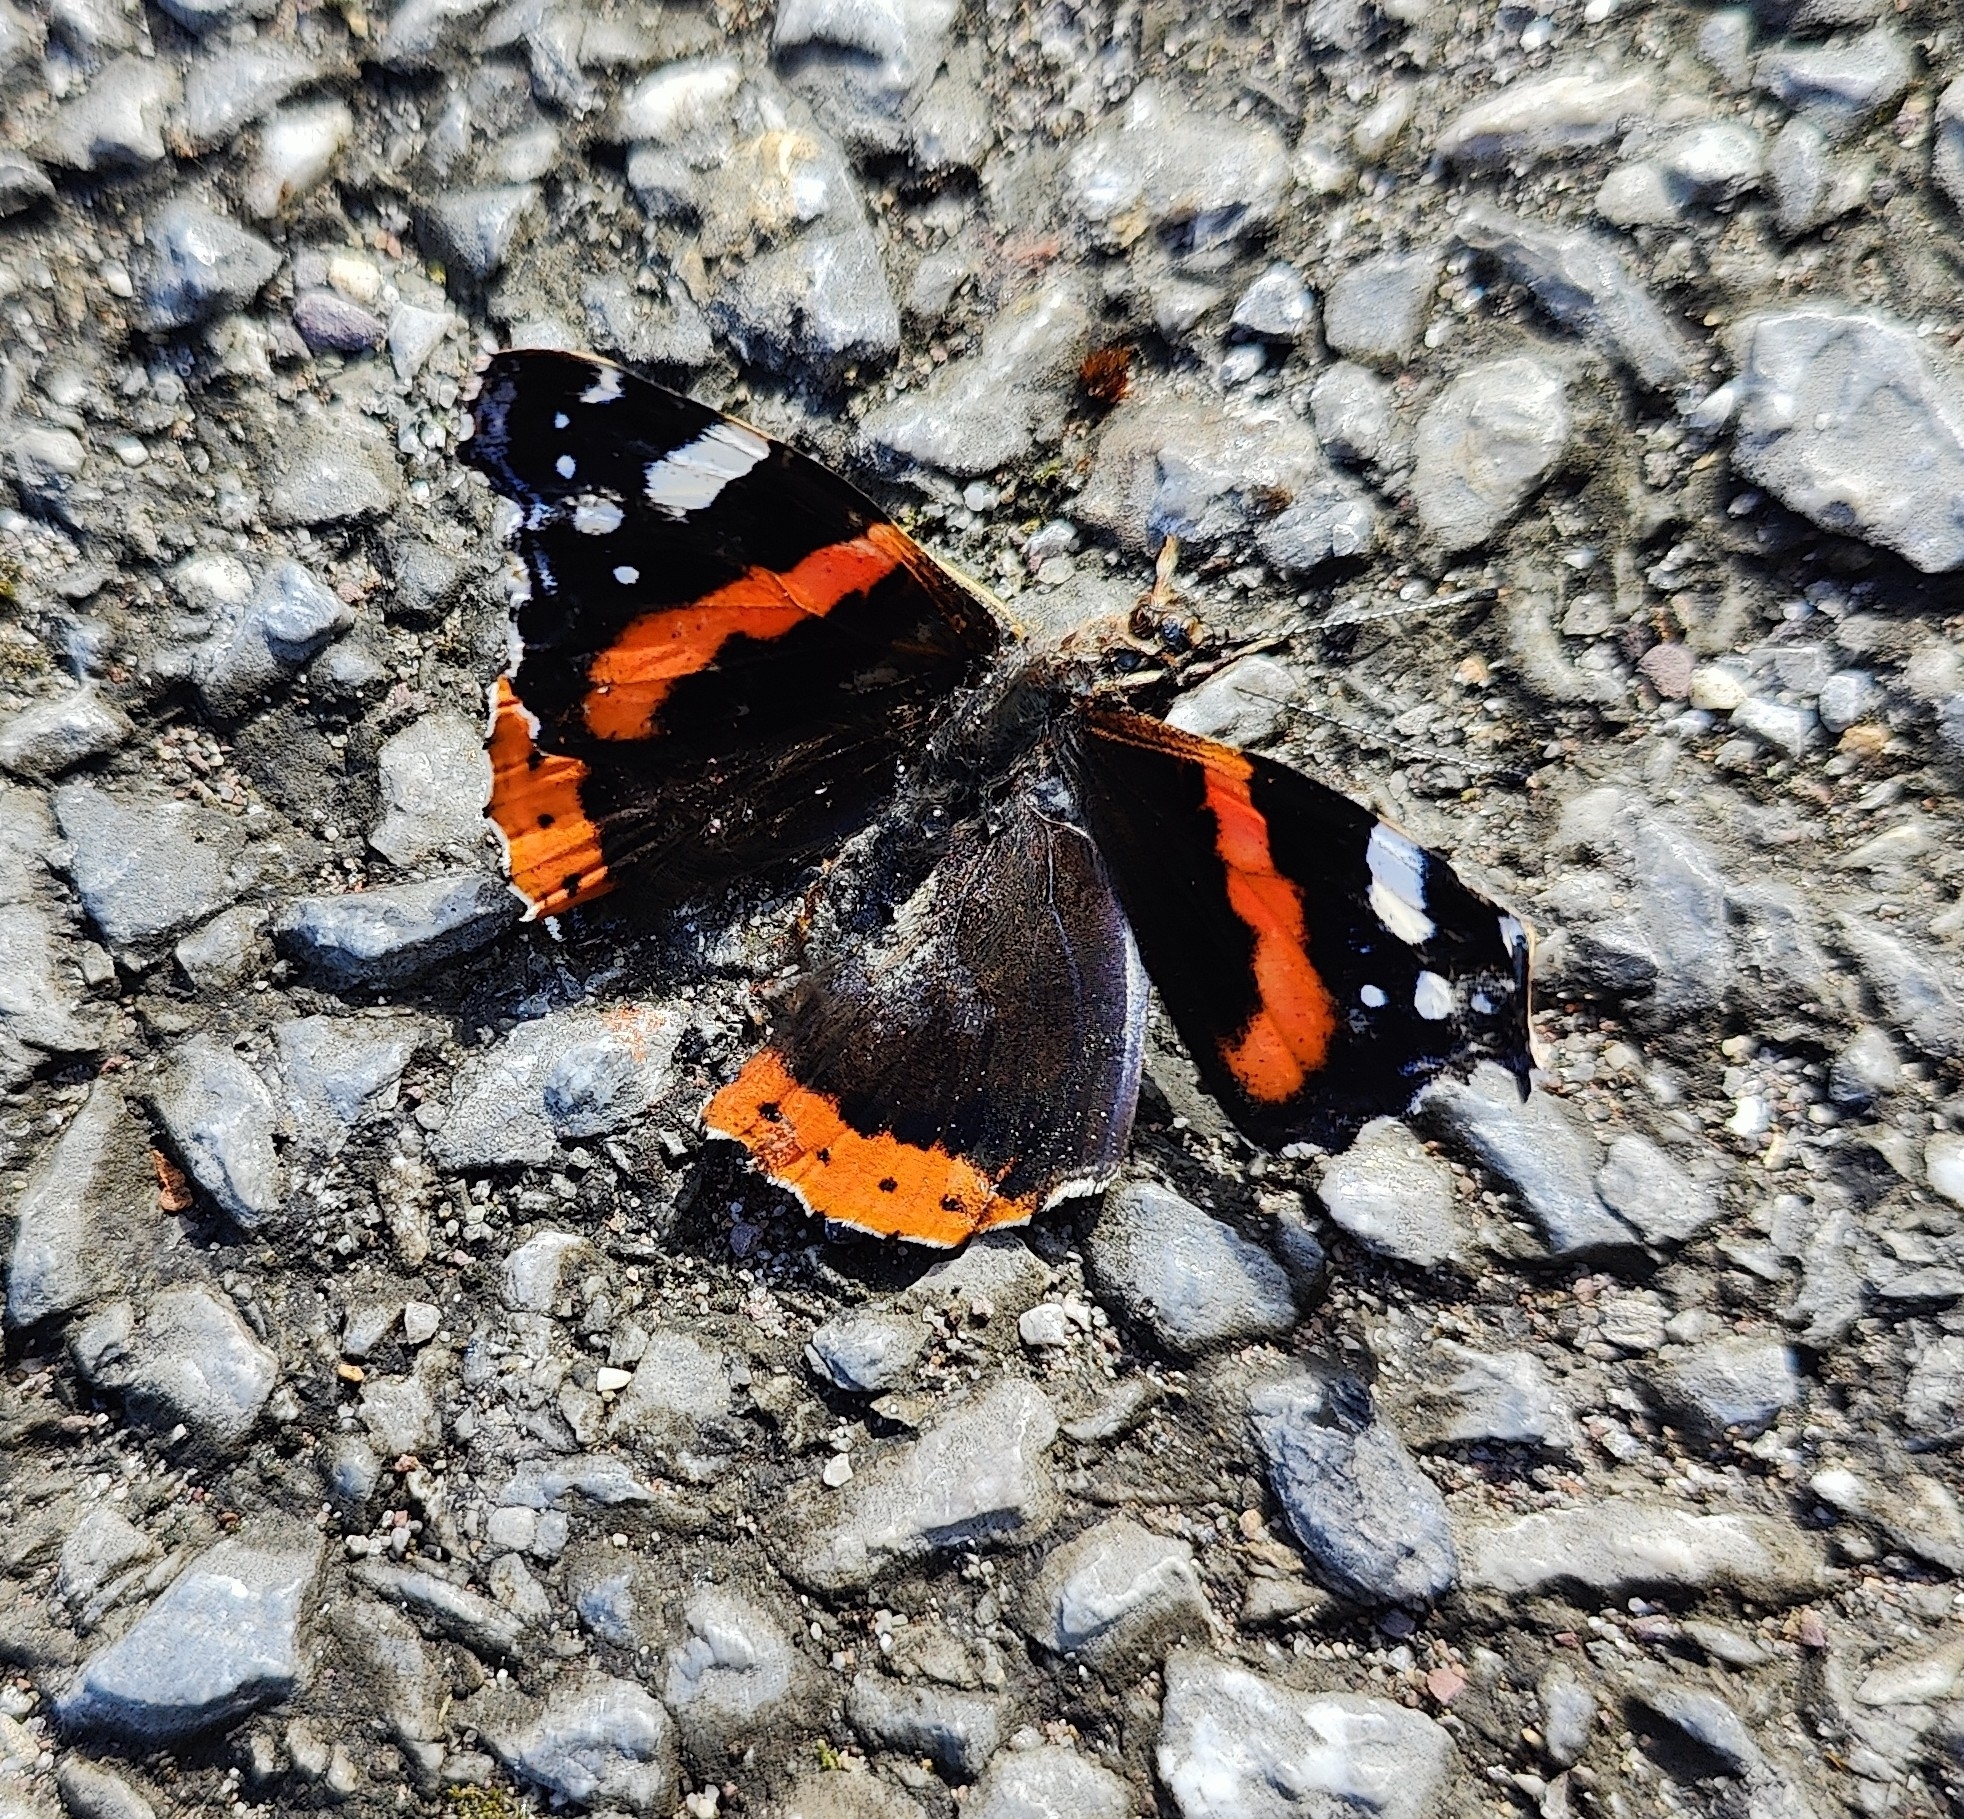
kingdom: Animalia
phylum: Arthropoda
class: Insecta
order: Lepidoptera
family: Nymphalidae
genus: Vanessa
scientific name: Vanessa atalanta
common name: Red admiral
